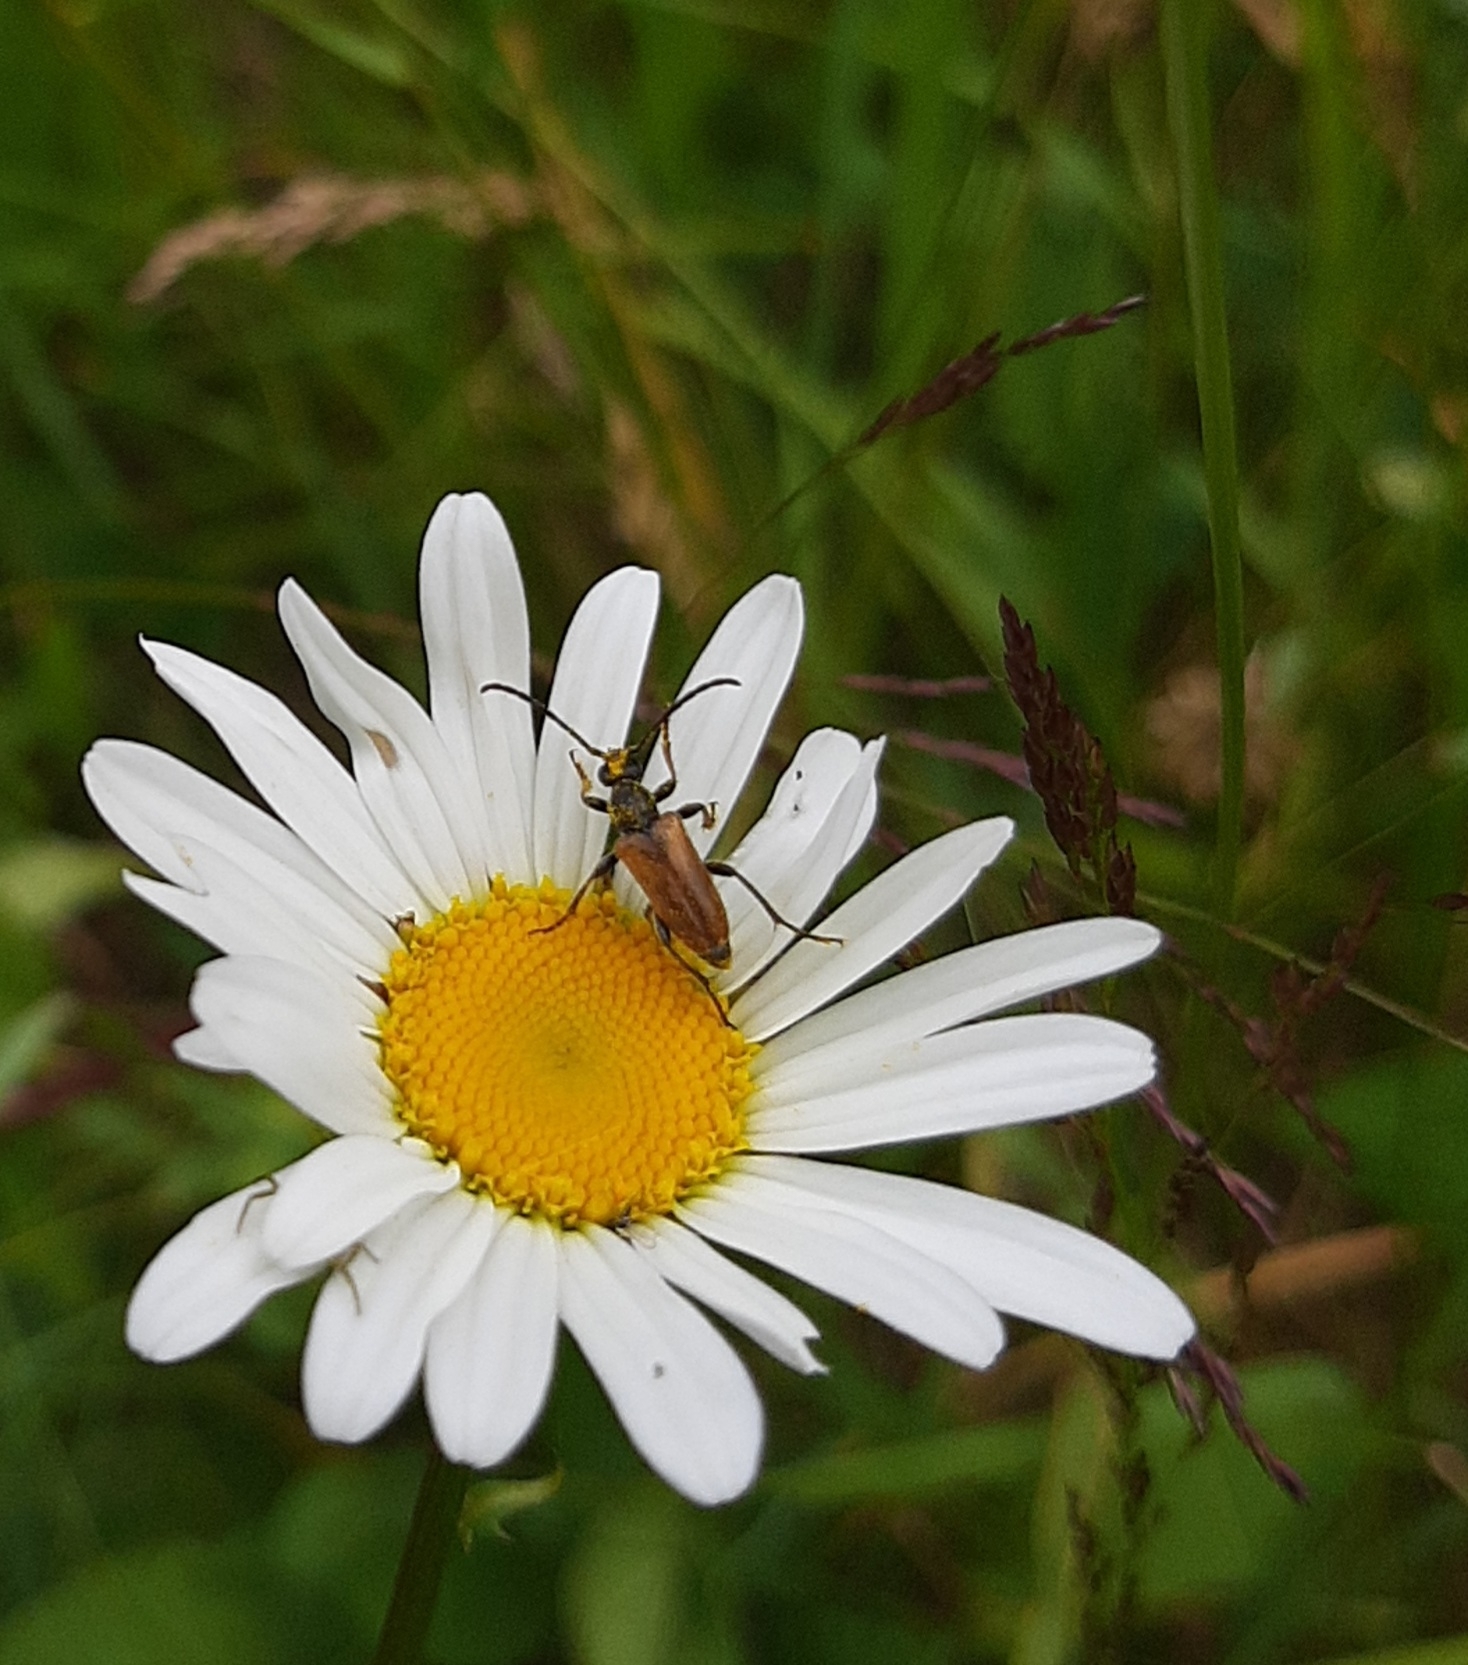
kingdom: Animalia
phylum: Arthropoda
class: Insecta
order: Coleoptera
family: Cerambycidae
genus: Pseudovadonia
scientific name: Pseudovadonia livida
